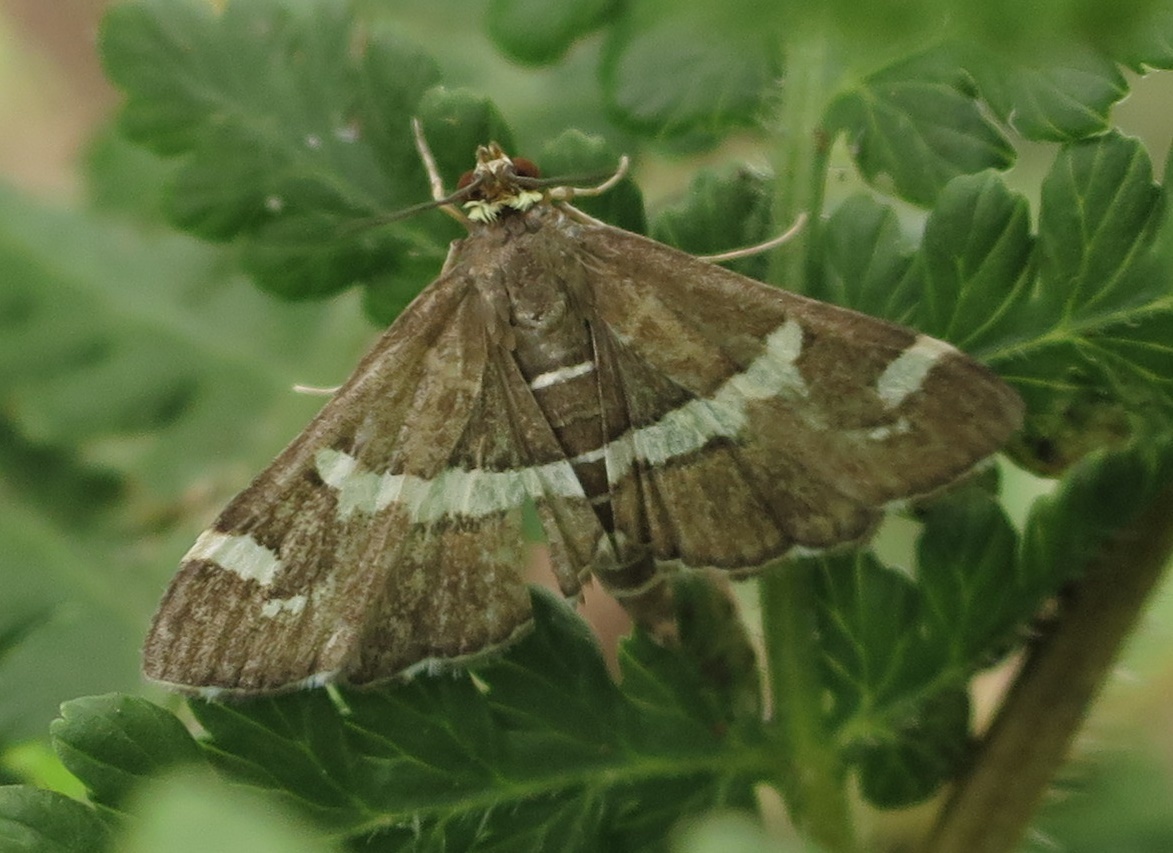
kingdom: Animalia
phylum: Arthropoda
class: Insecta
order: Lepidoptera
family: Crambidae
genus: Spoladea
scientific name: Spoladea recurvalis
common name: Beet webworm moth
